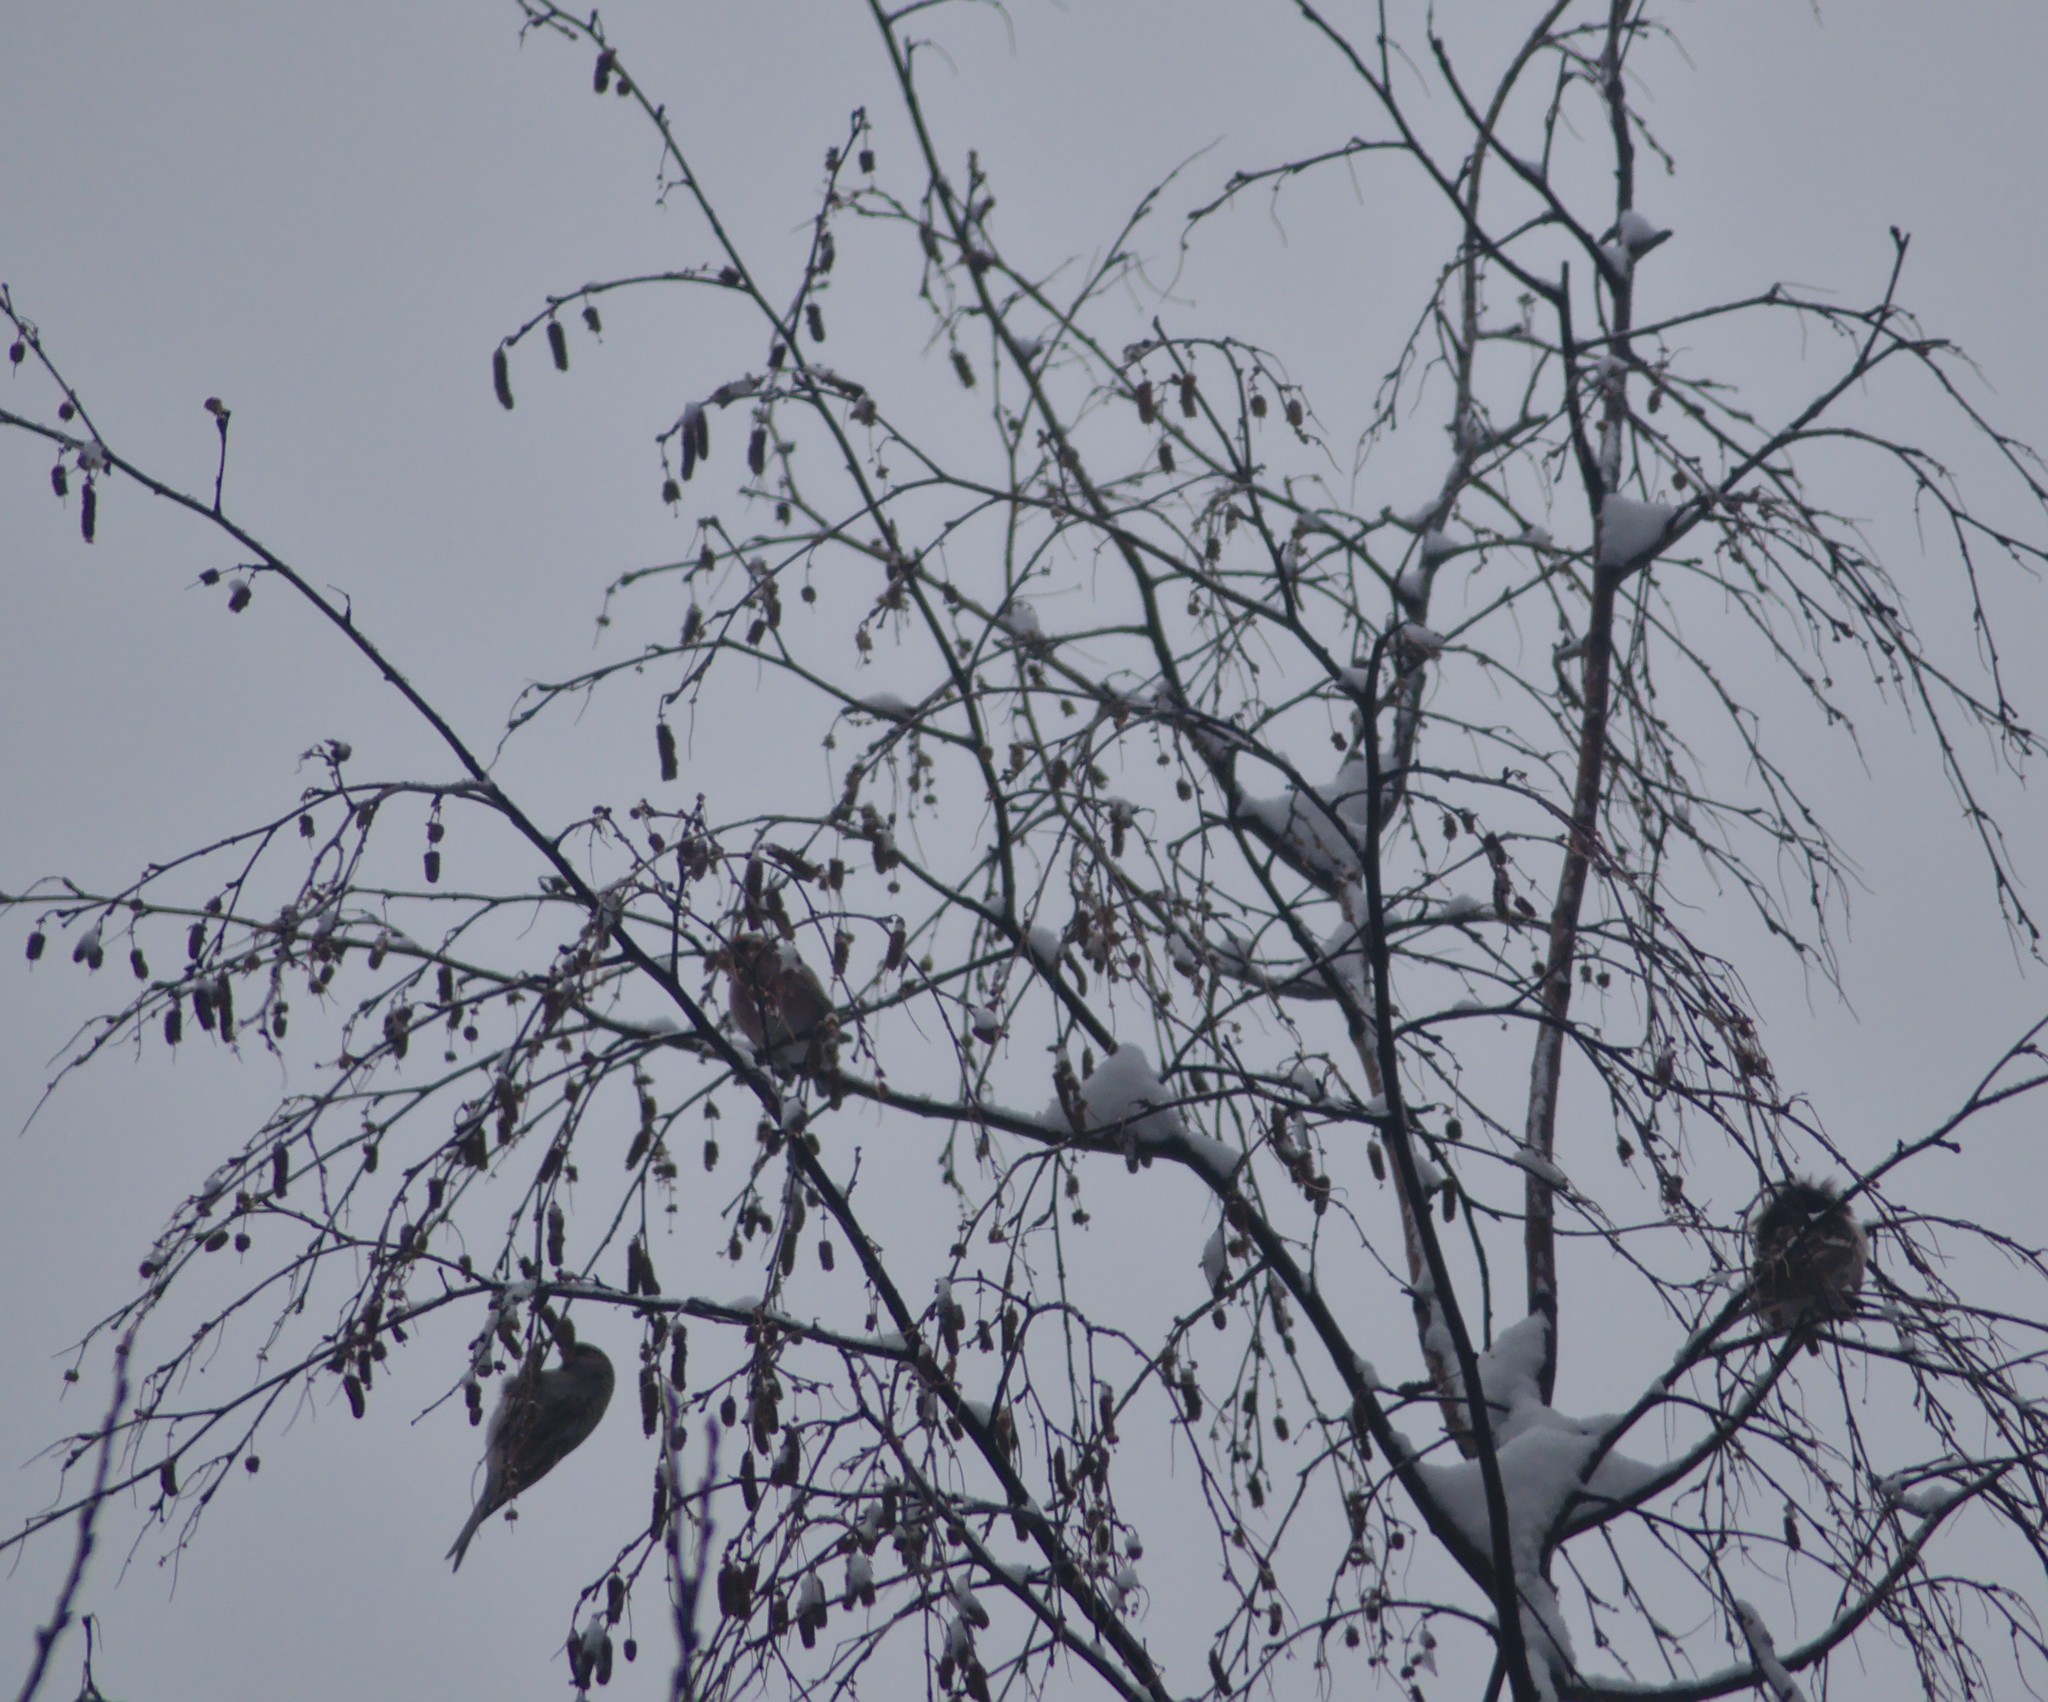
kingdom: Animalia
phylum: Chordata
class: Aves
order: Passeriformes
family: Fringillidae
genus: Acanthis
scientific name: Acanthis flammea
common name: Common redpoll
